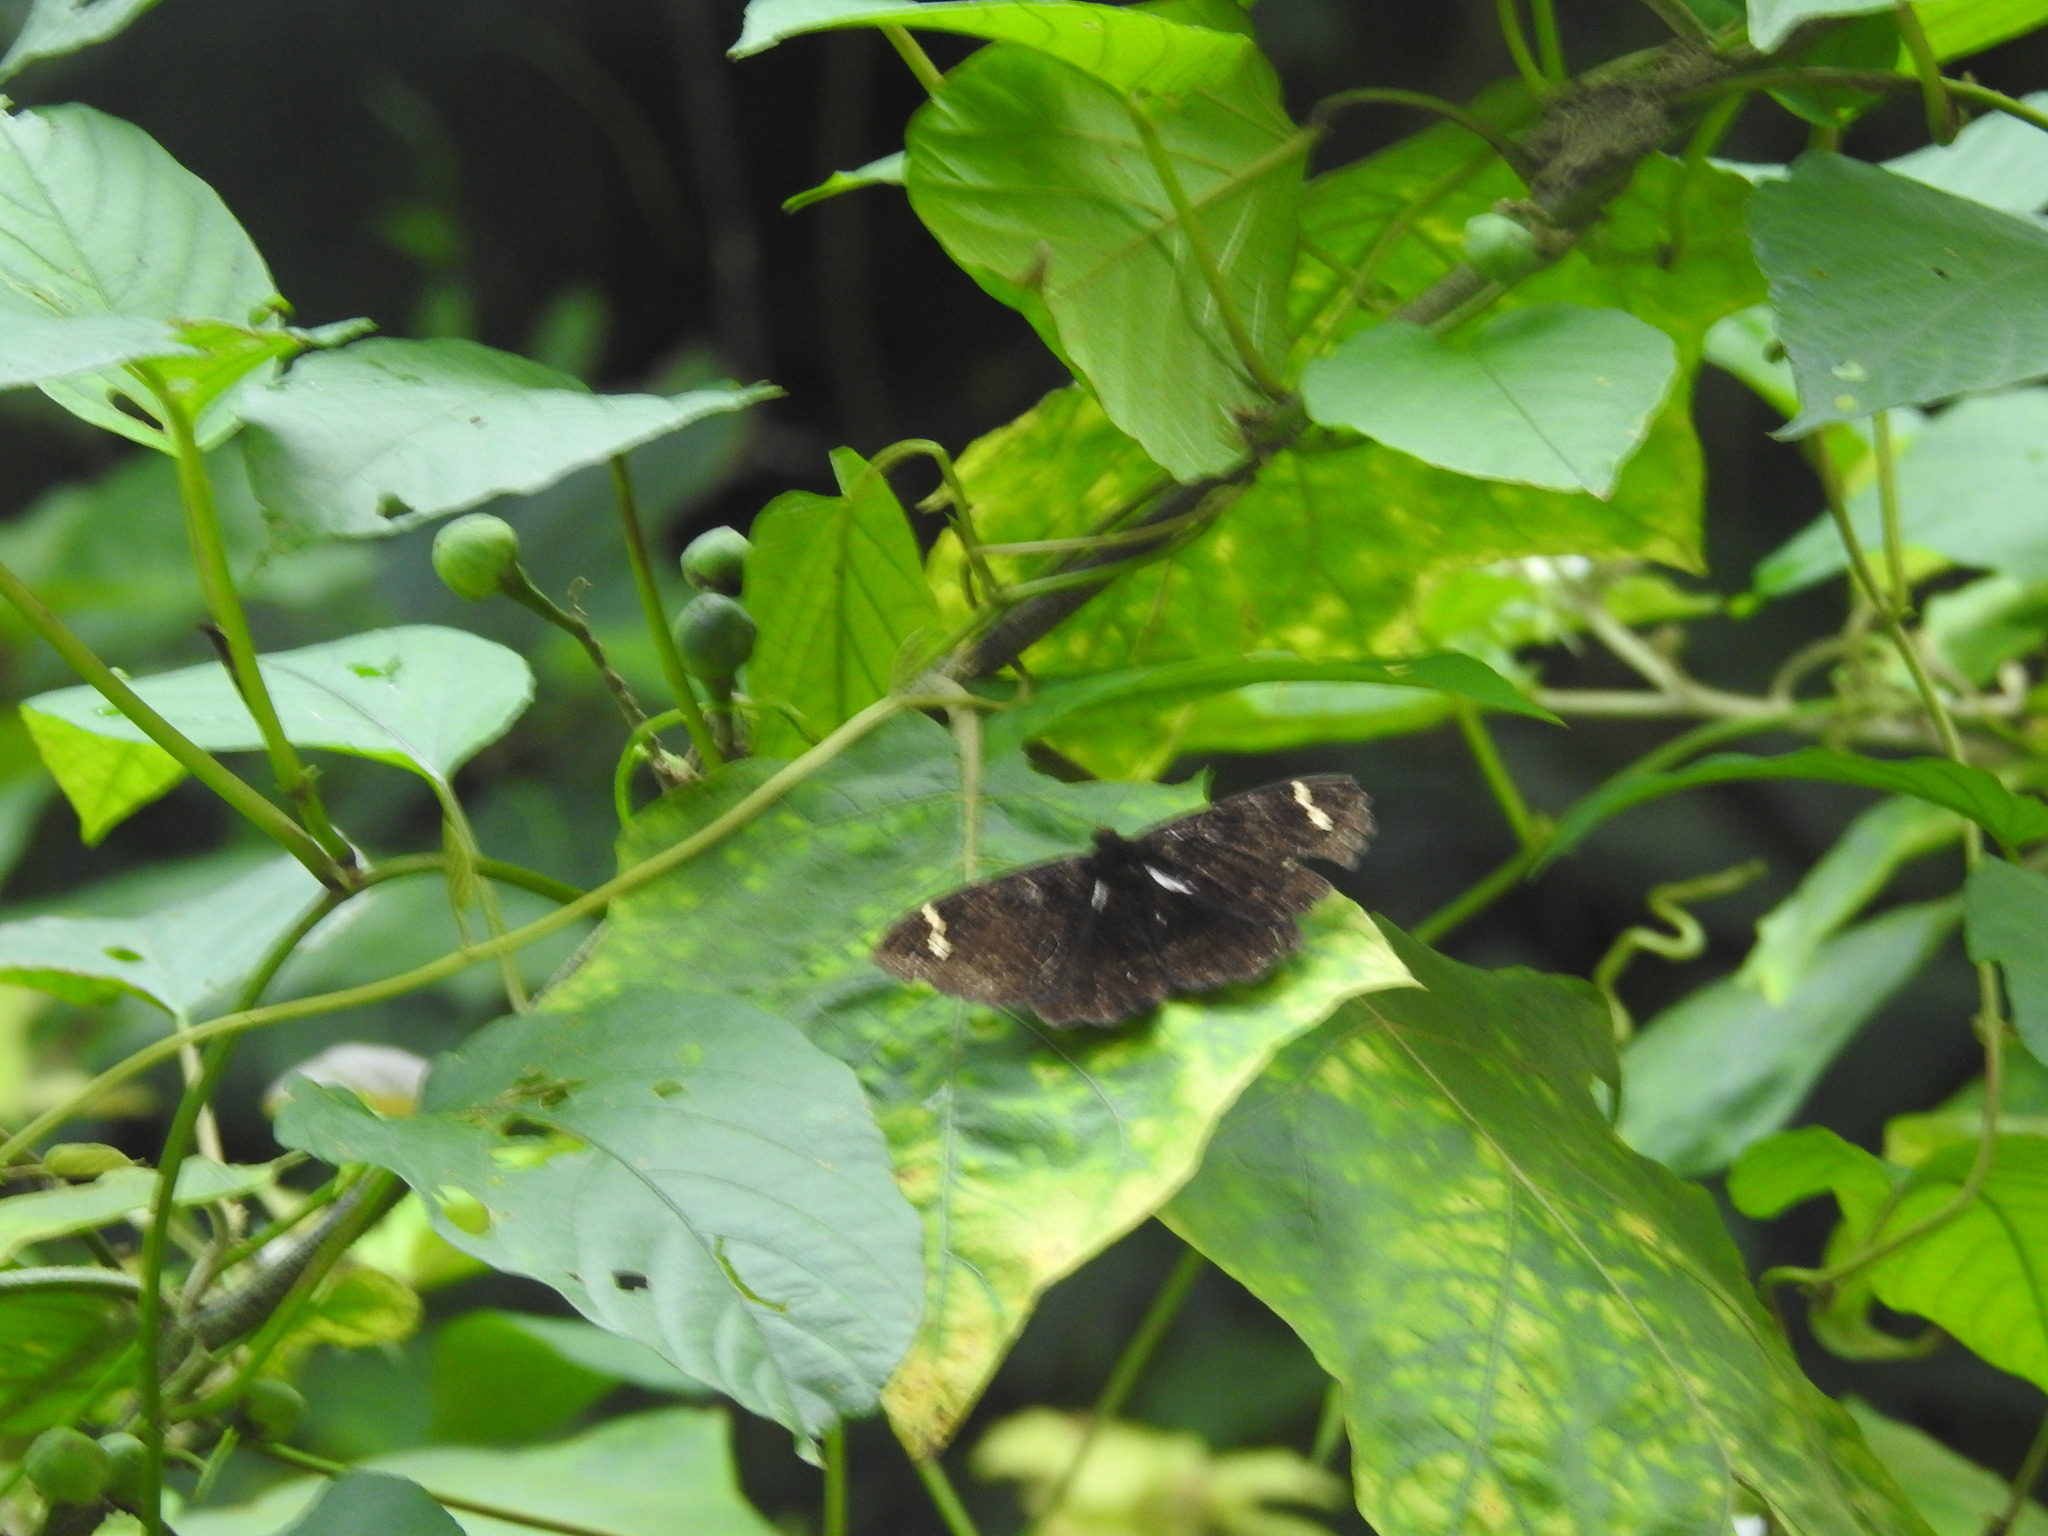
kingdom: Animalia
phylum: Arthropoda
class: Insecta
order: Lepidoptera
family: Erebidae
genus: Erebus
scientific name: Erebus hieroglyphica
